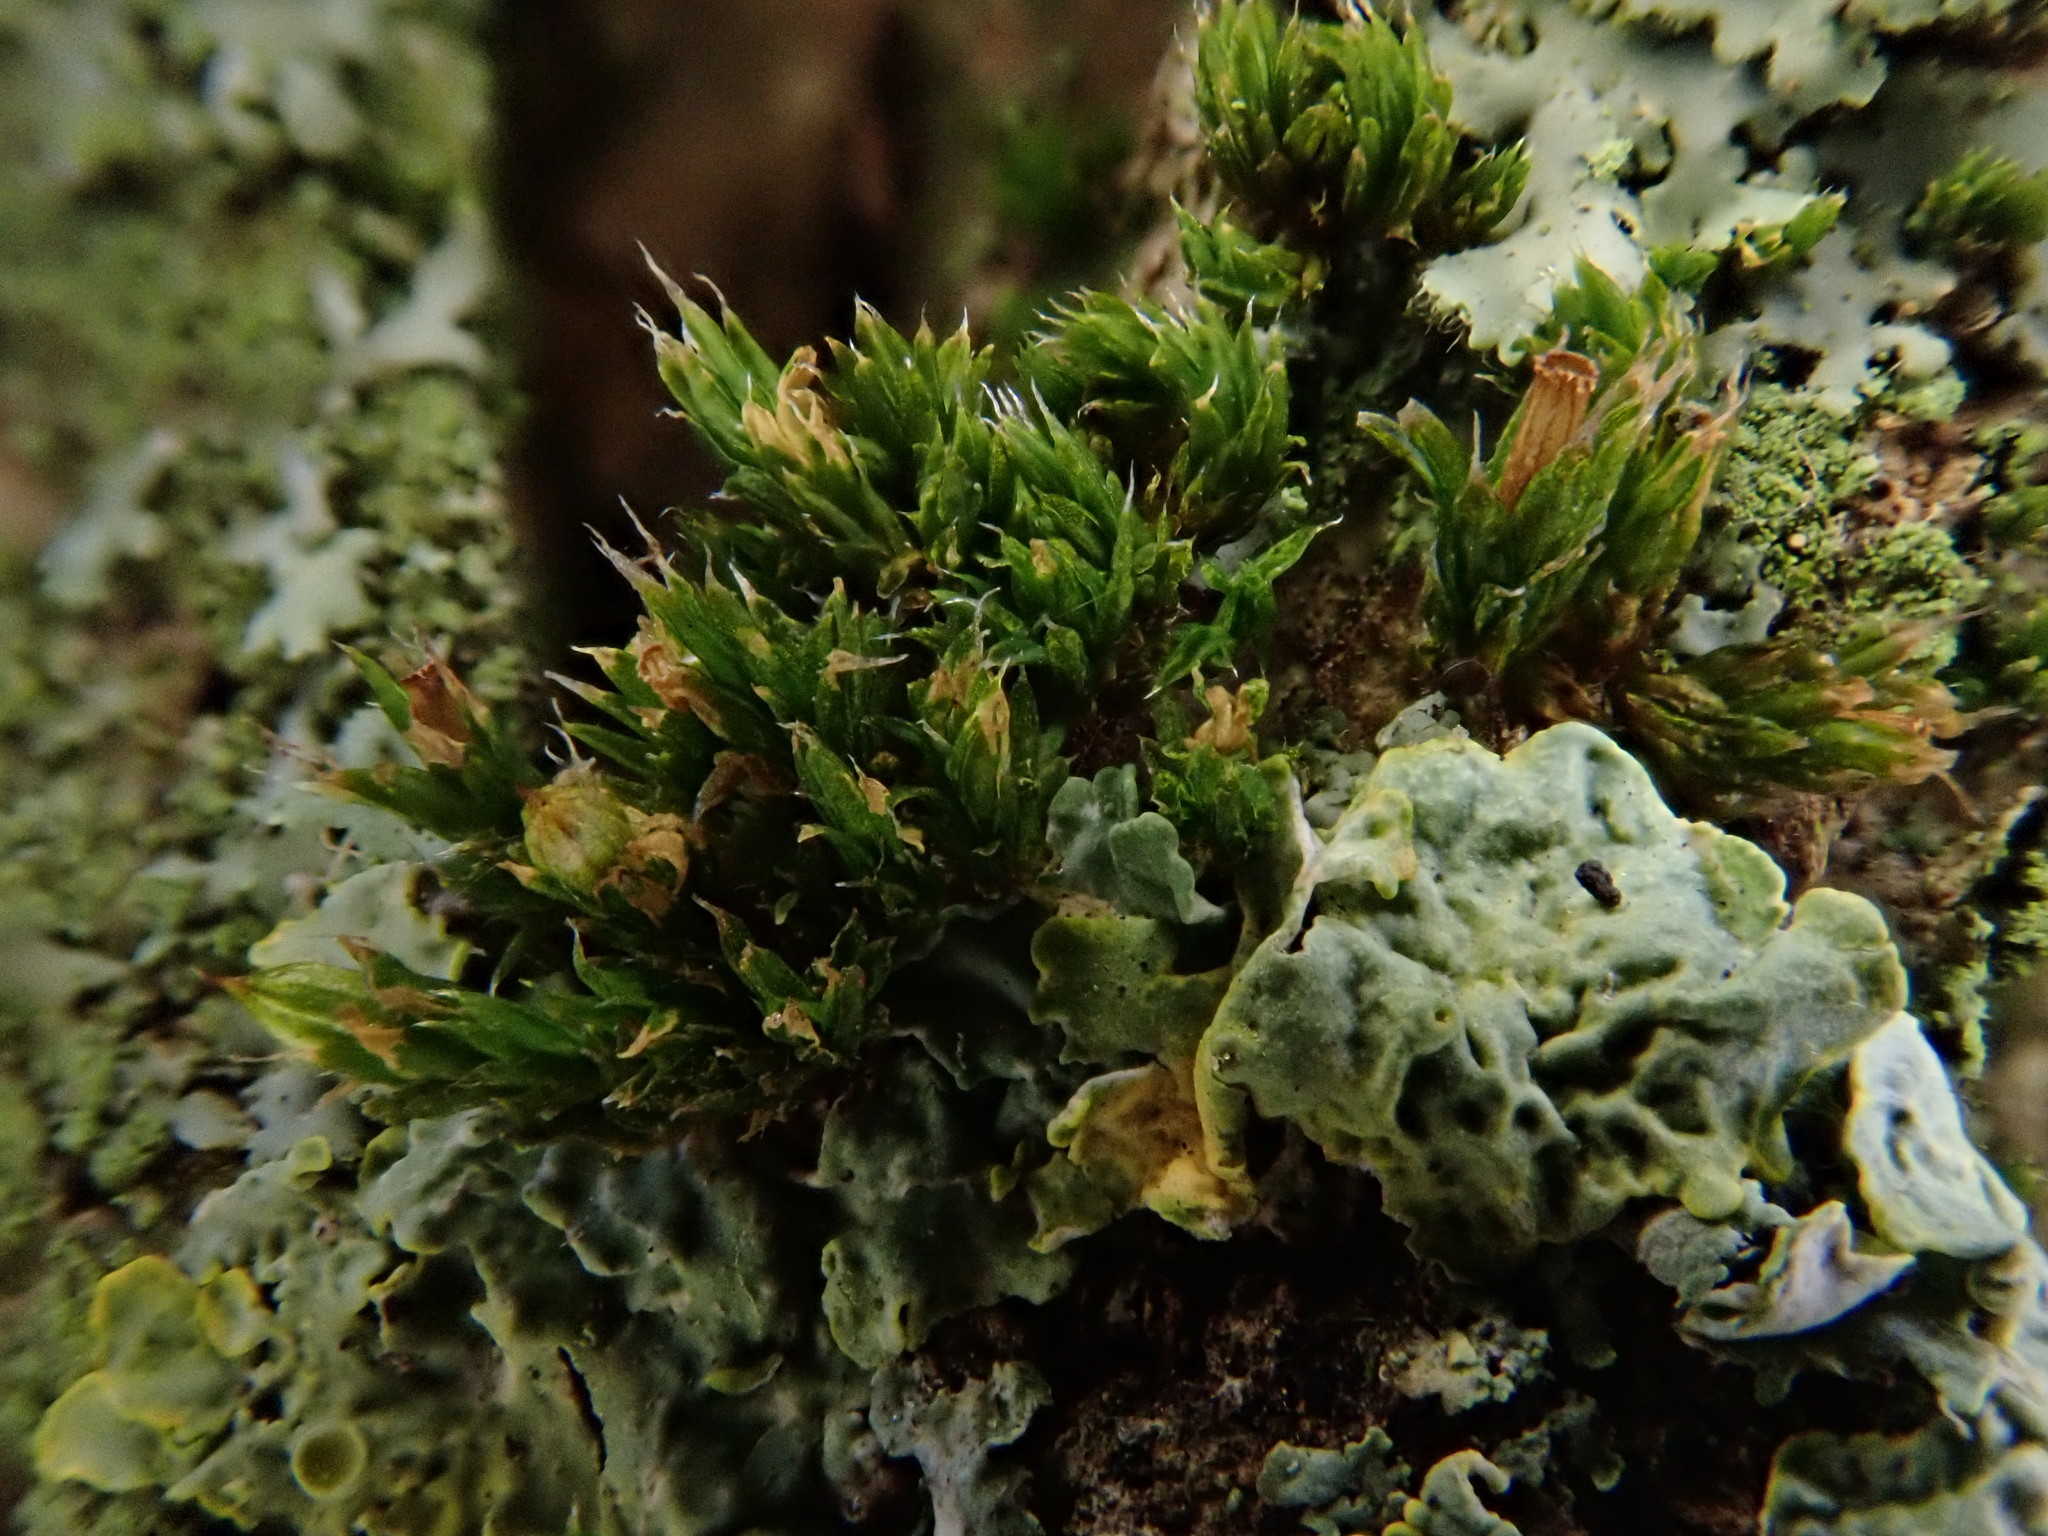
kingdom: Plantae
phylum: Bryophyta
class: Bryopsida
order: Orthotrichales
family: Orthotrichaceae
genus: Orthotrichum
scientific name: Orthotrichum diaphanum
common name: White-tipped bristle-moss
